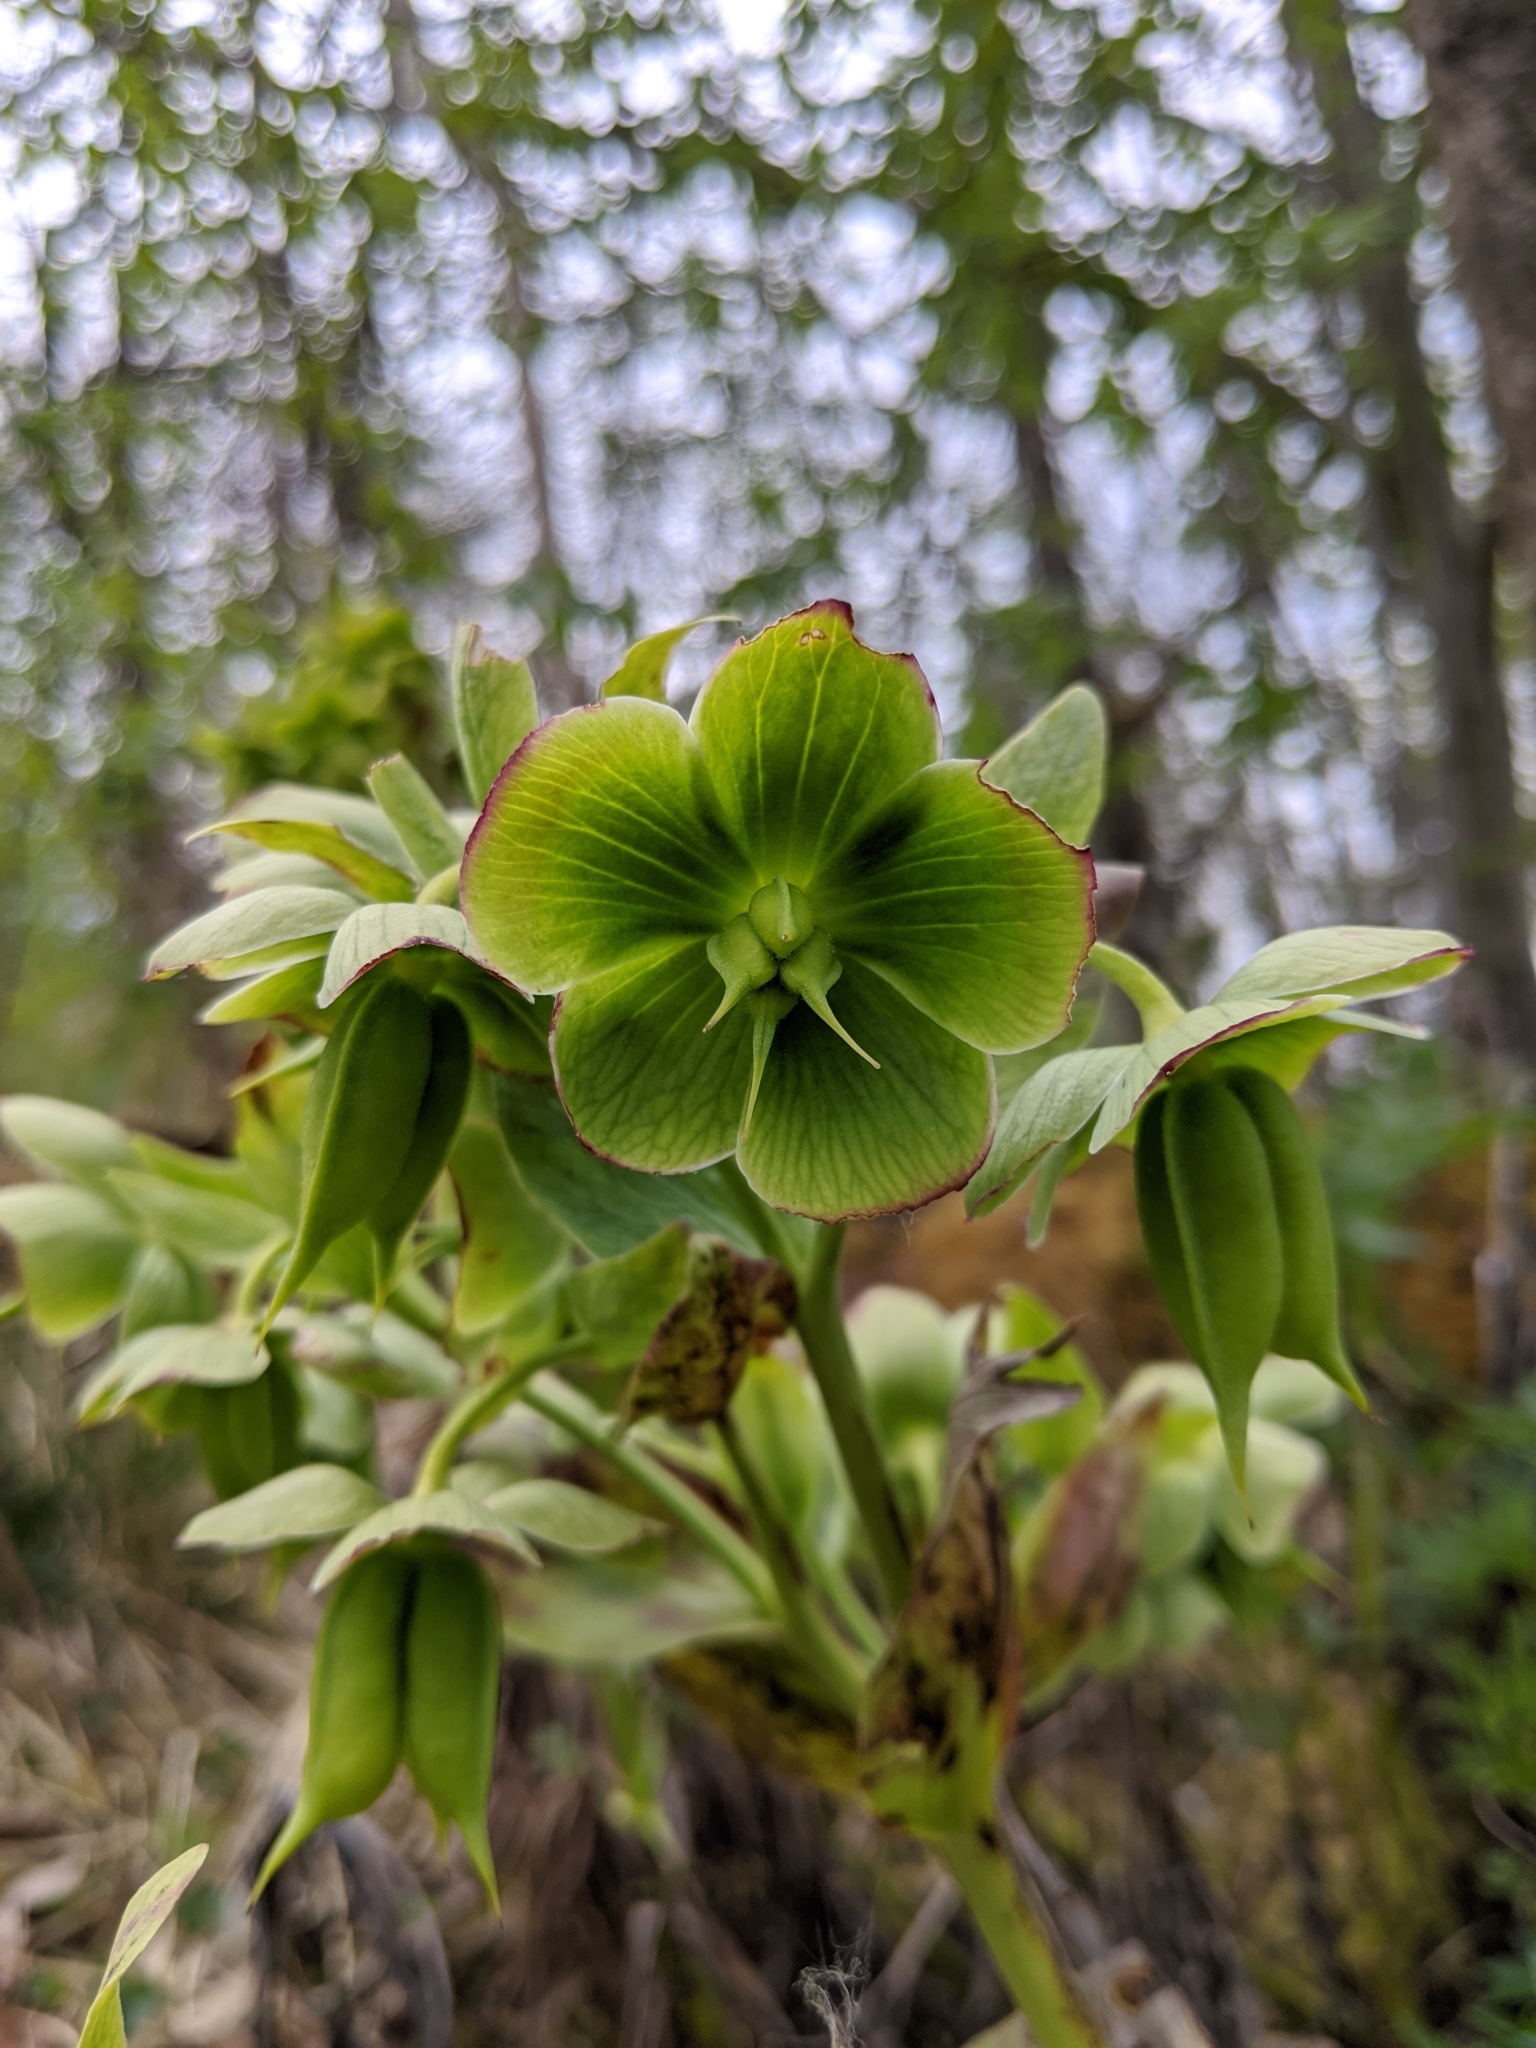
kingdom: Plantae
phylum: Tracheophyta
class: Magnoliopsida
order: Ranunculales
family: Ranunculaceae
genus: Helleborus
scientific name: Helleborus foetidus
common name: Stinking hellebore
